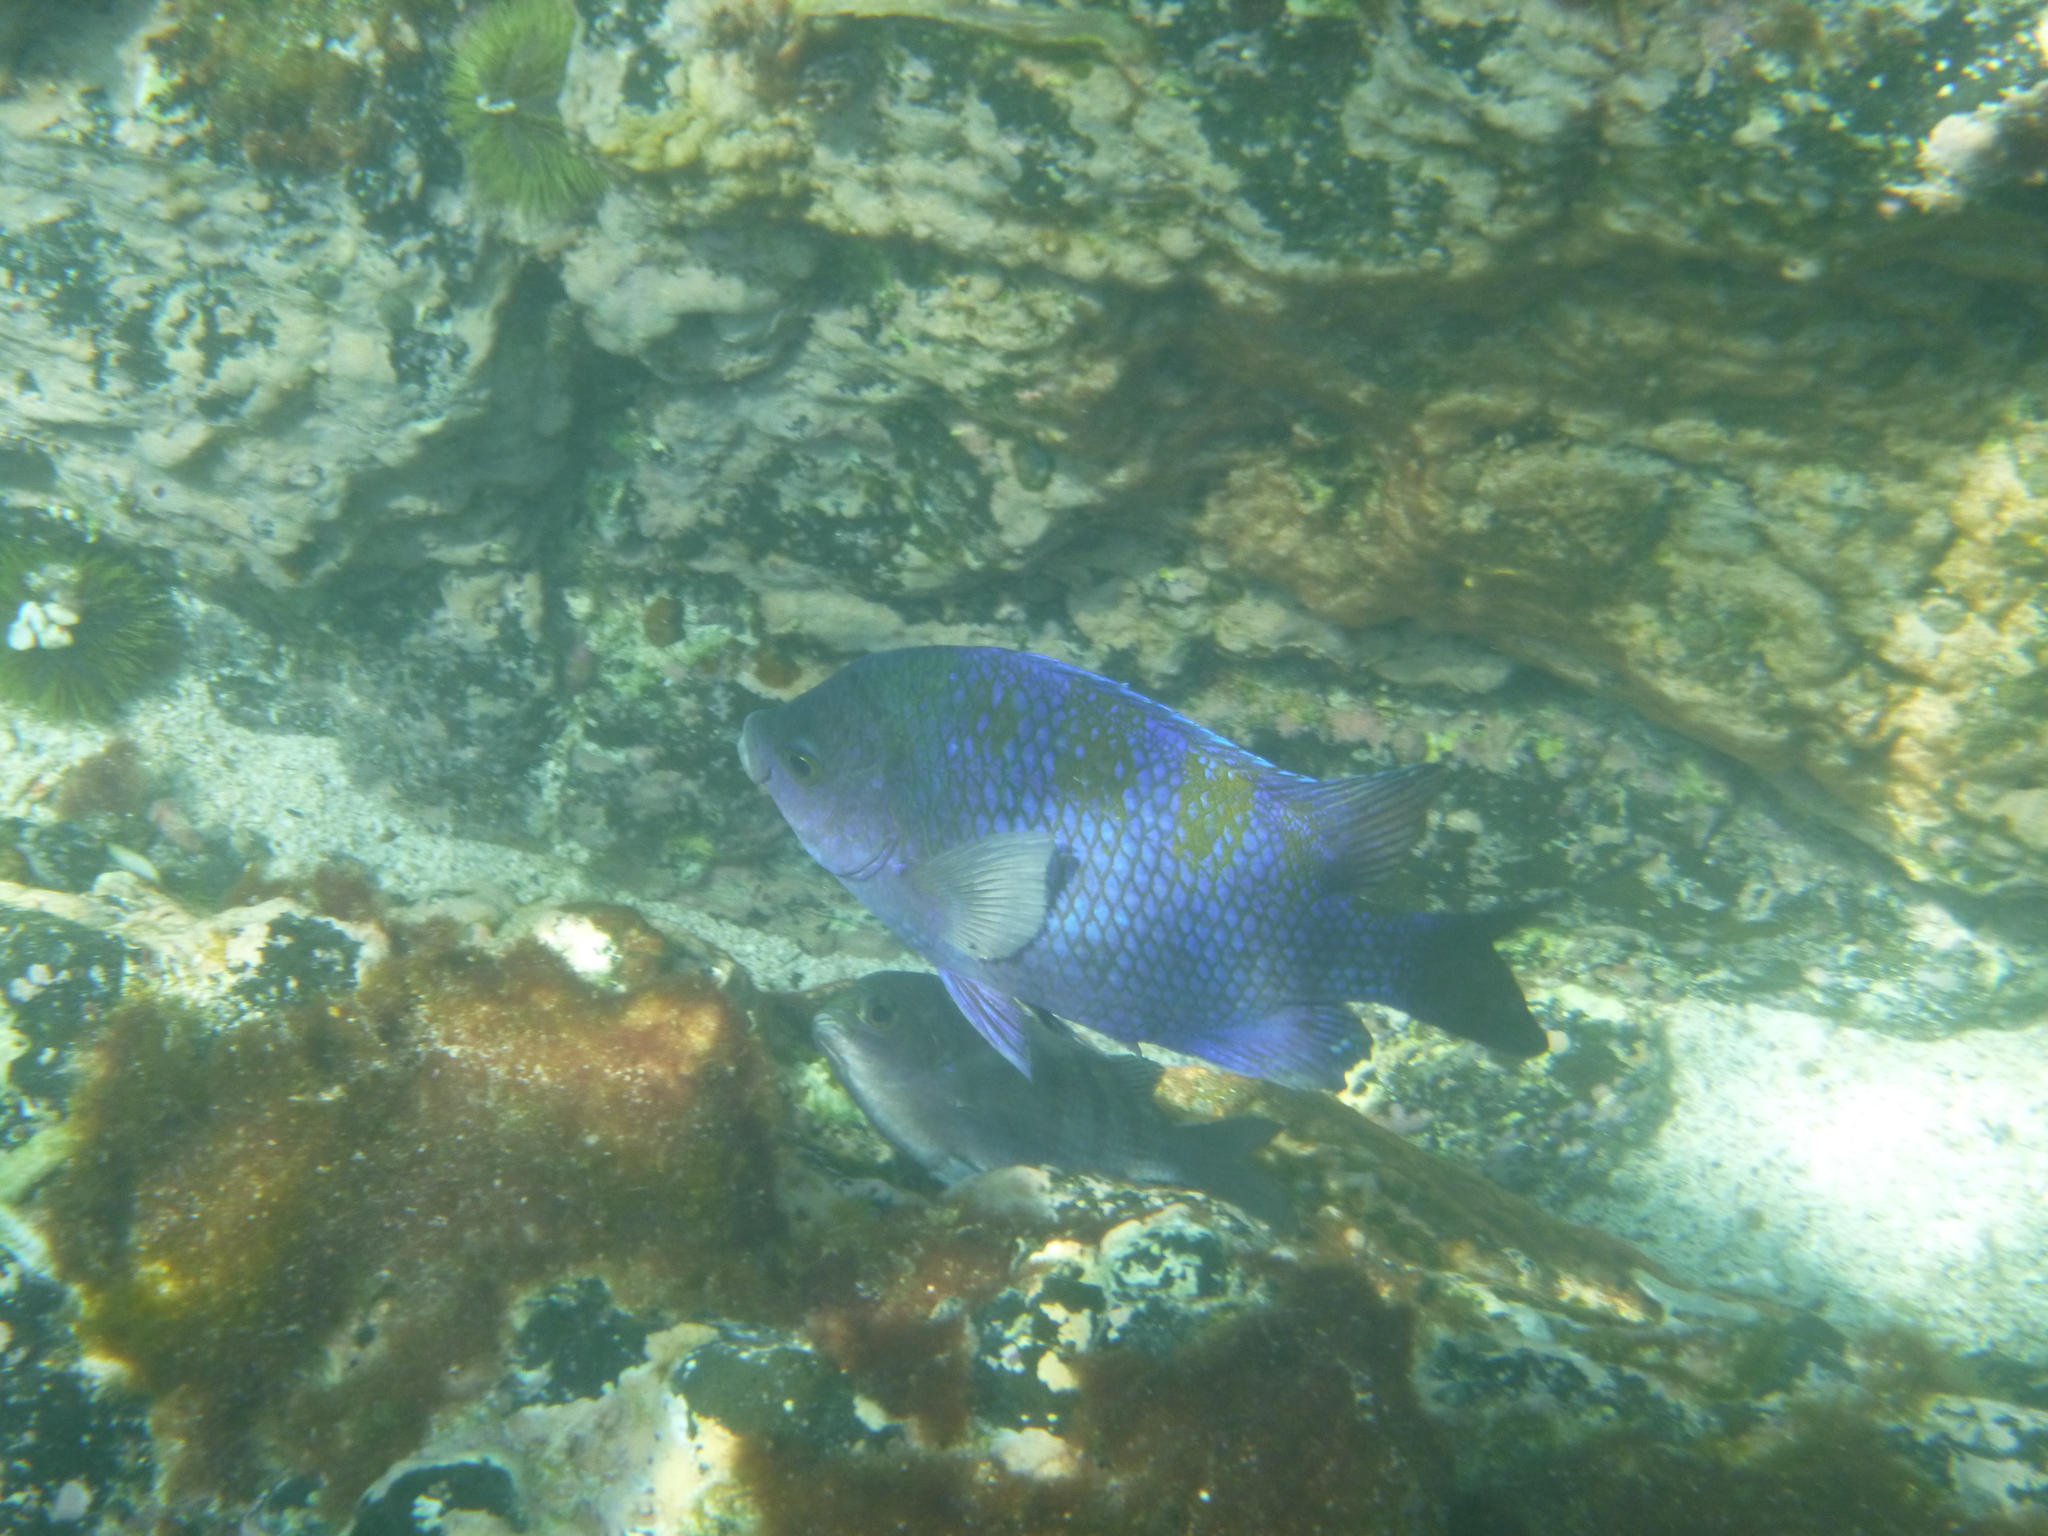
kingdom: Animalia
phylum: Chordata
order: Perciformes
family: Pomacentridae
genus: Abudefduf
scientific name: Abudefduf troschelii
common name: Panamic sergeant major
